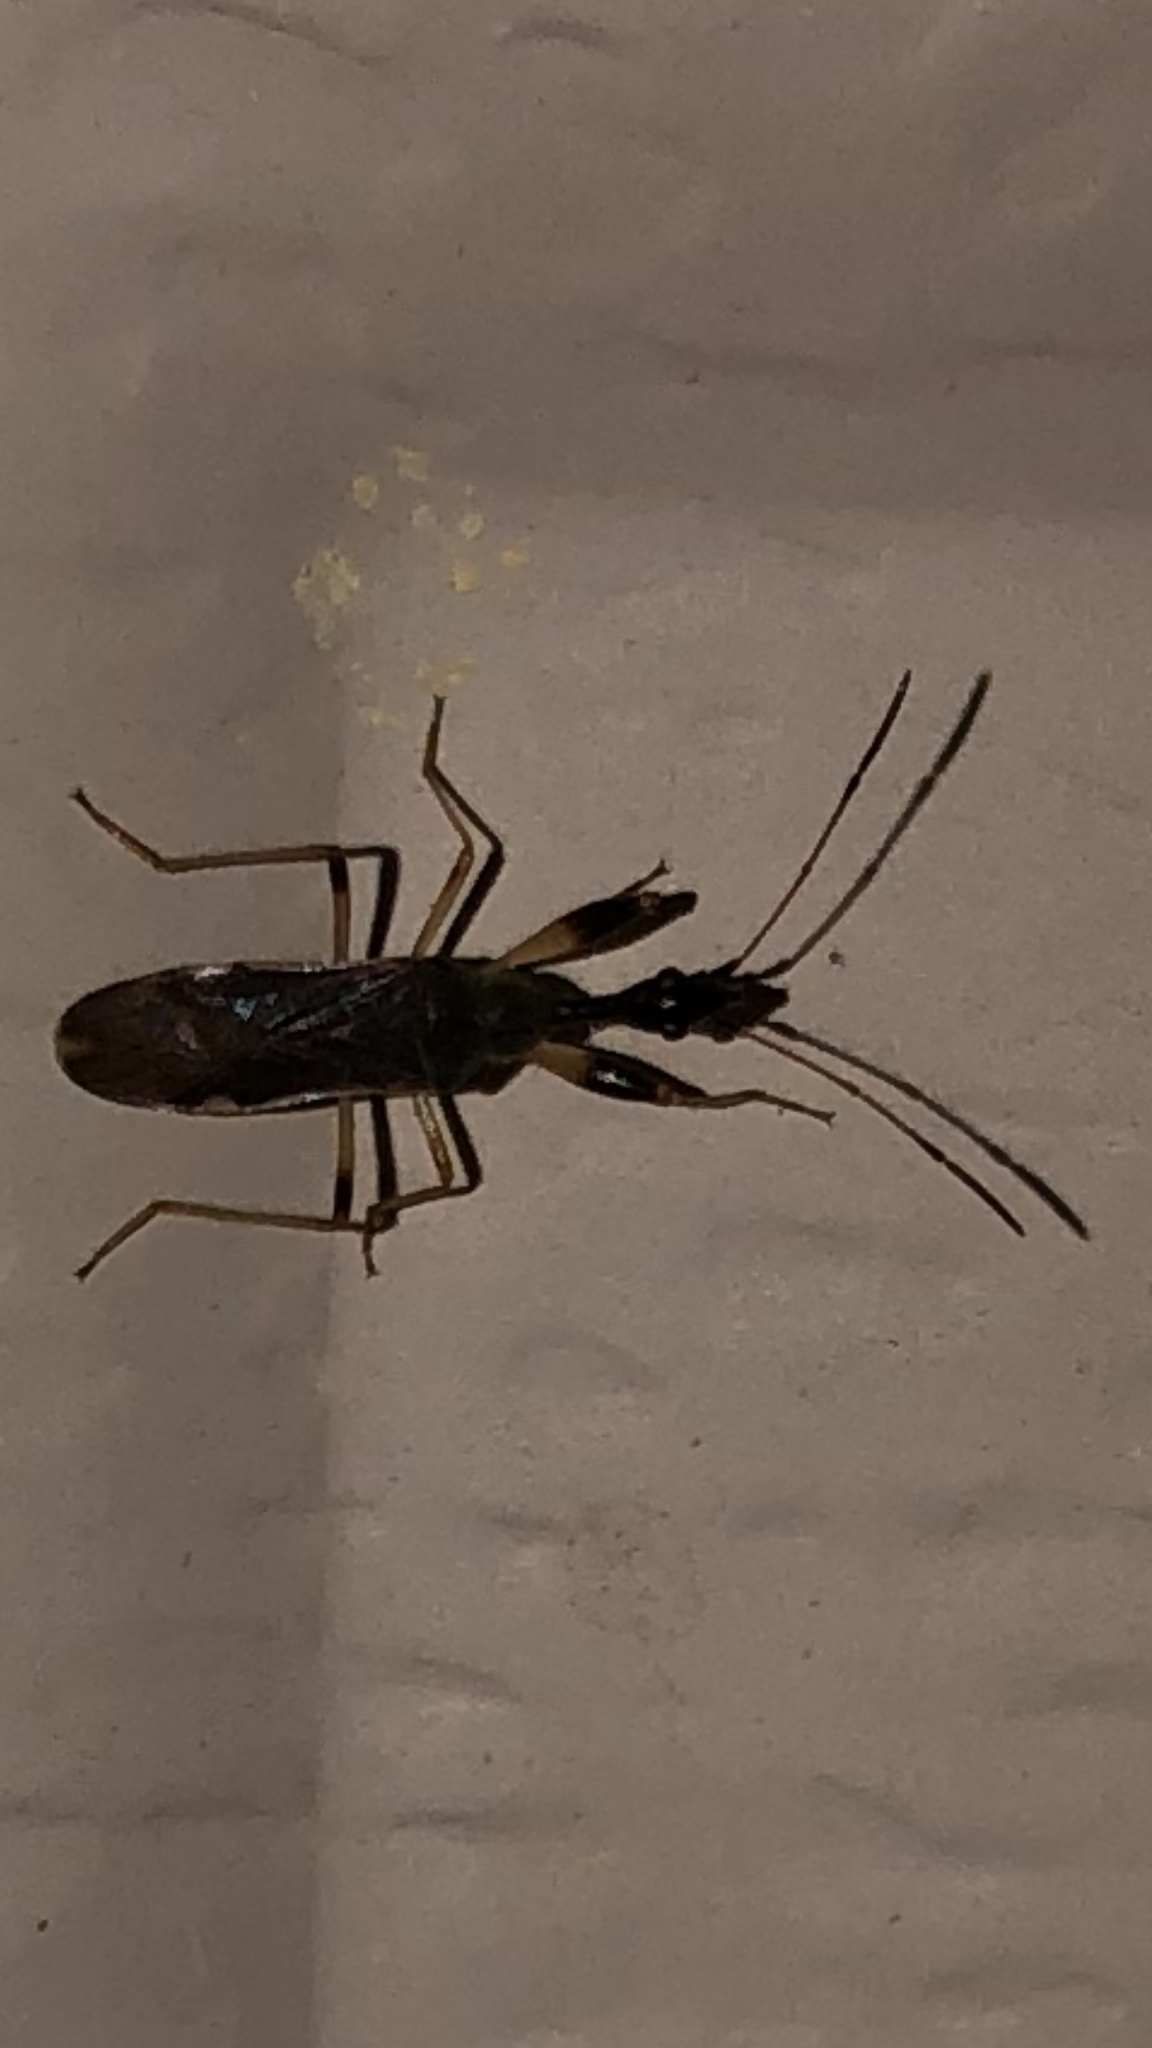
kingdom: Animalia
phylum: Arthropoda
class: Insecta
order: Hemiptera
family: Rhyparochromidae
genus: Myodocha
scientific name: Myodocha serripes
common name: Long-necked seed bug
